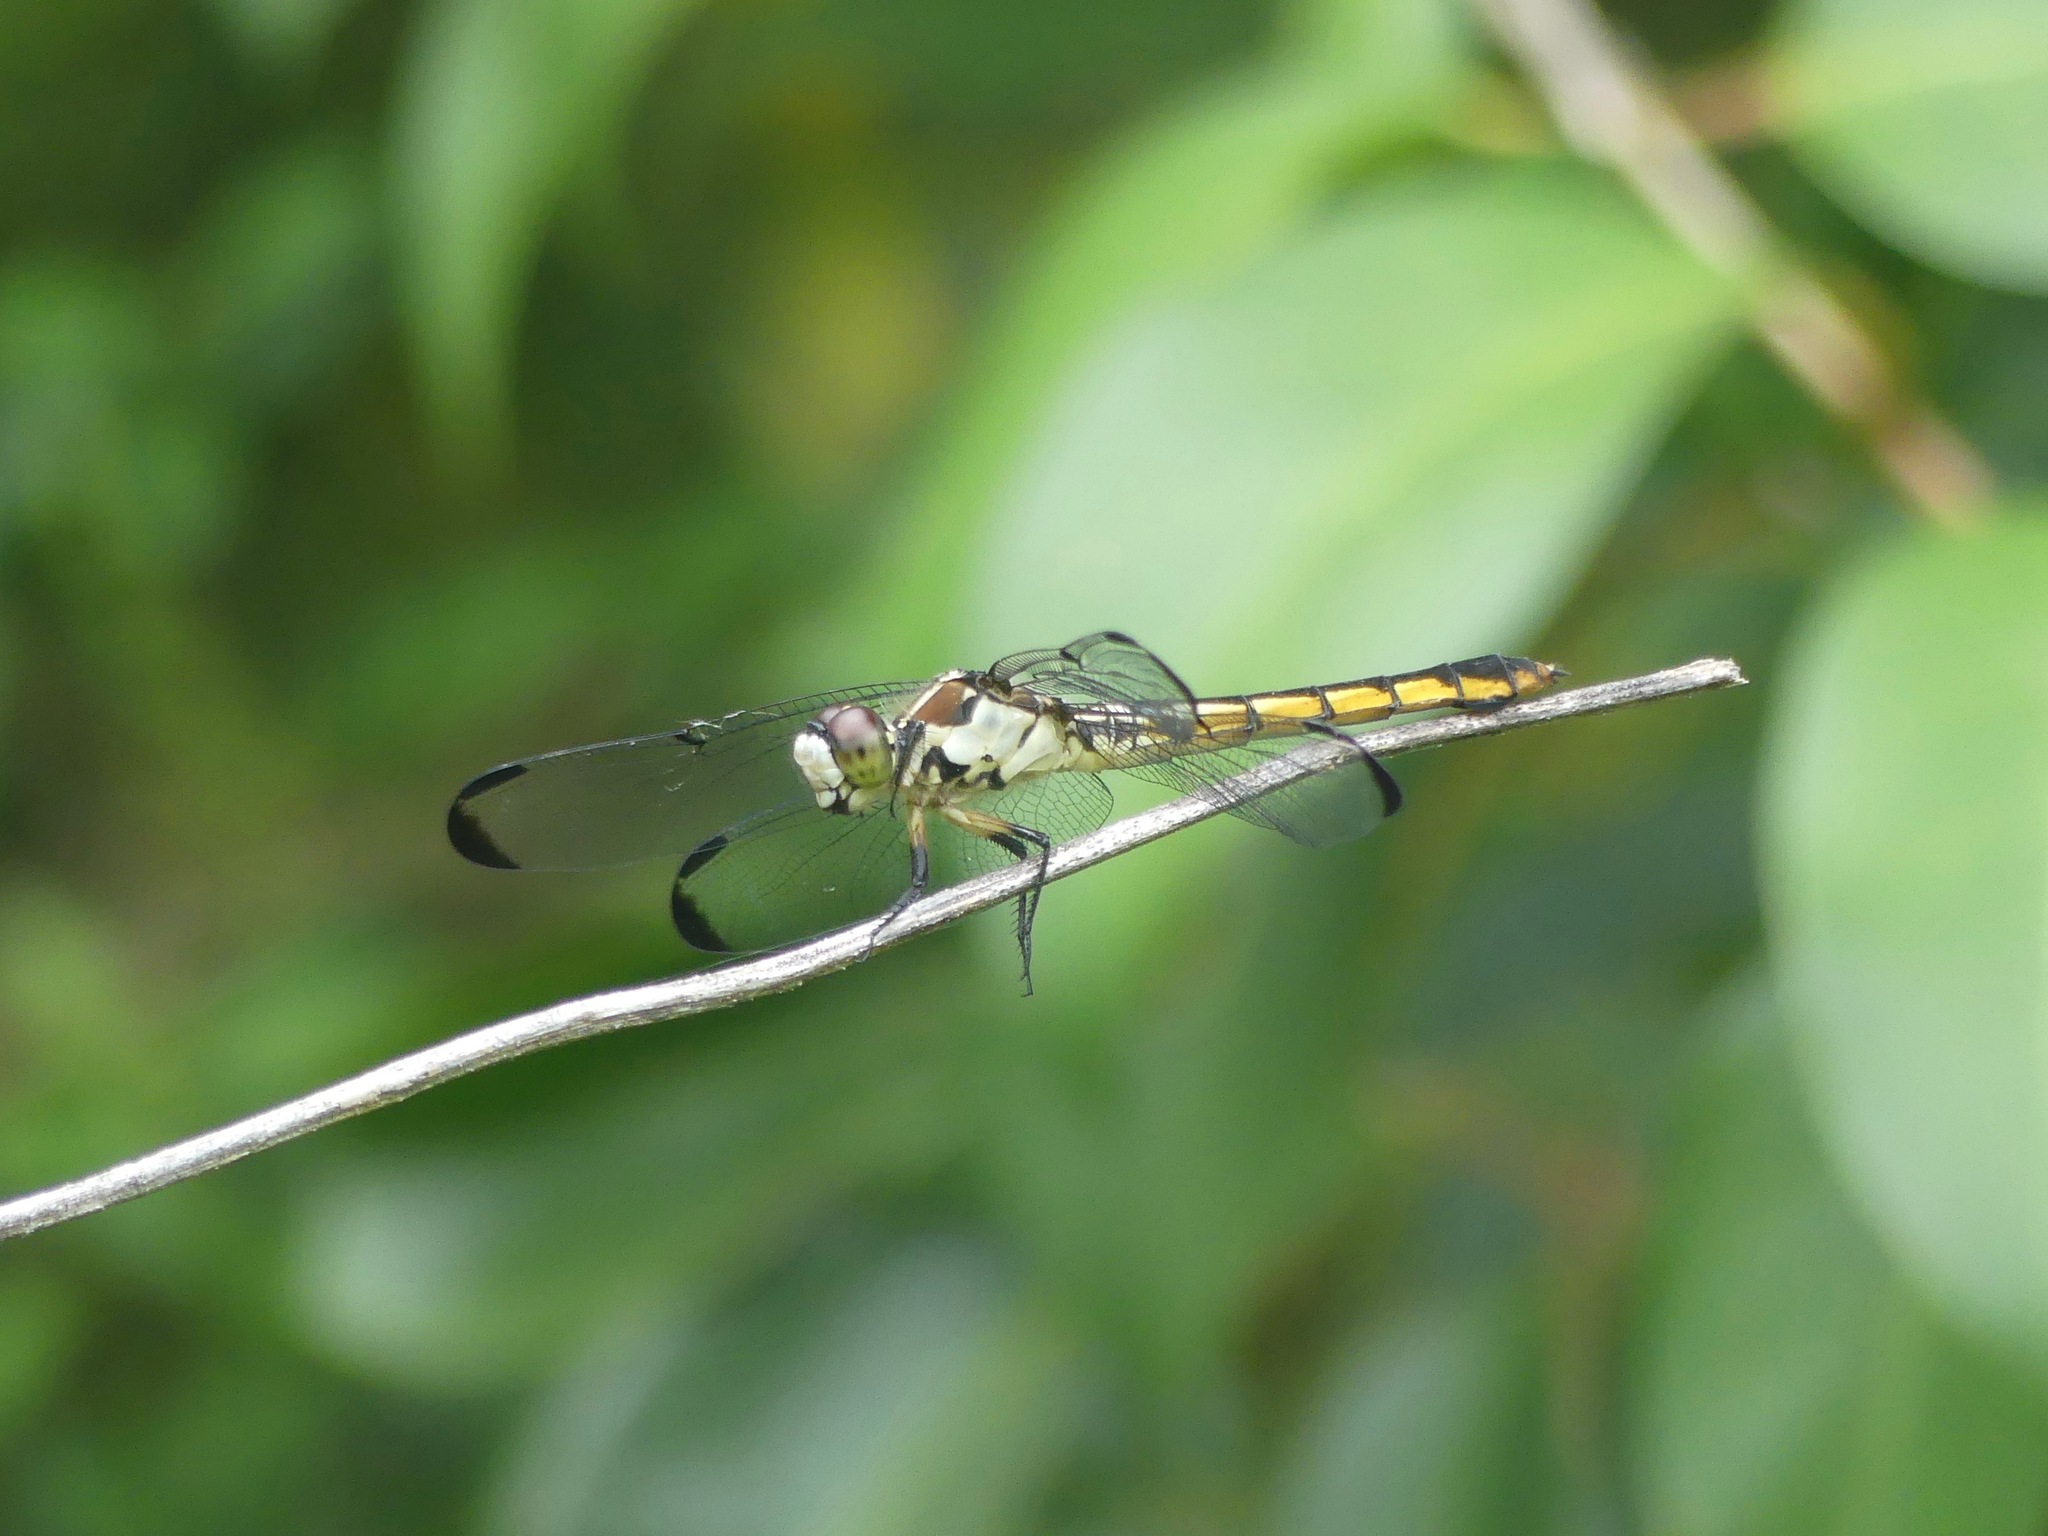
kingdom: Animalia
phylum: Arthropoda
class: Insecta
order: Odonata
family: Libellulidae
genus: Libellula
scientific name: Libellula vibrans
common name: Great blue skimmer
